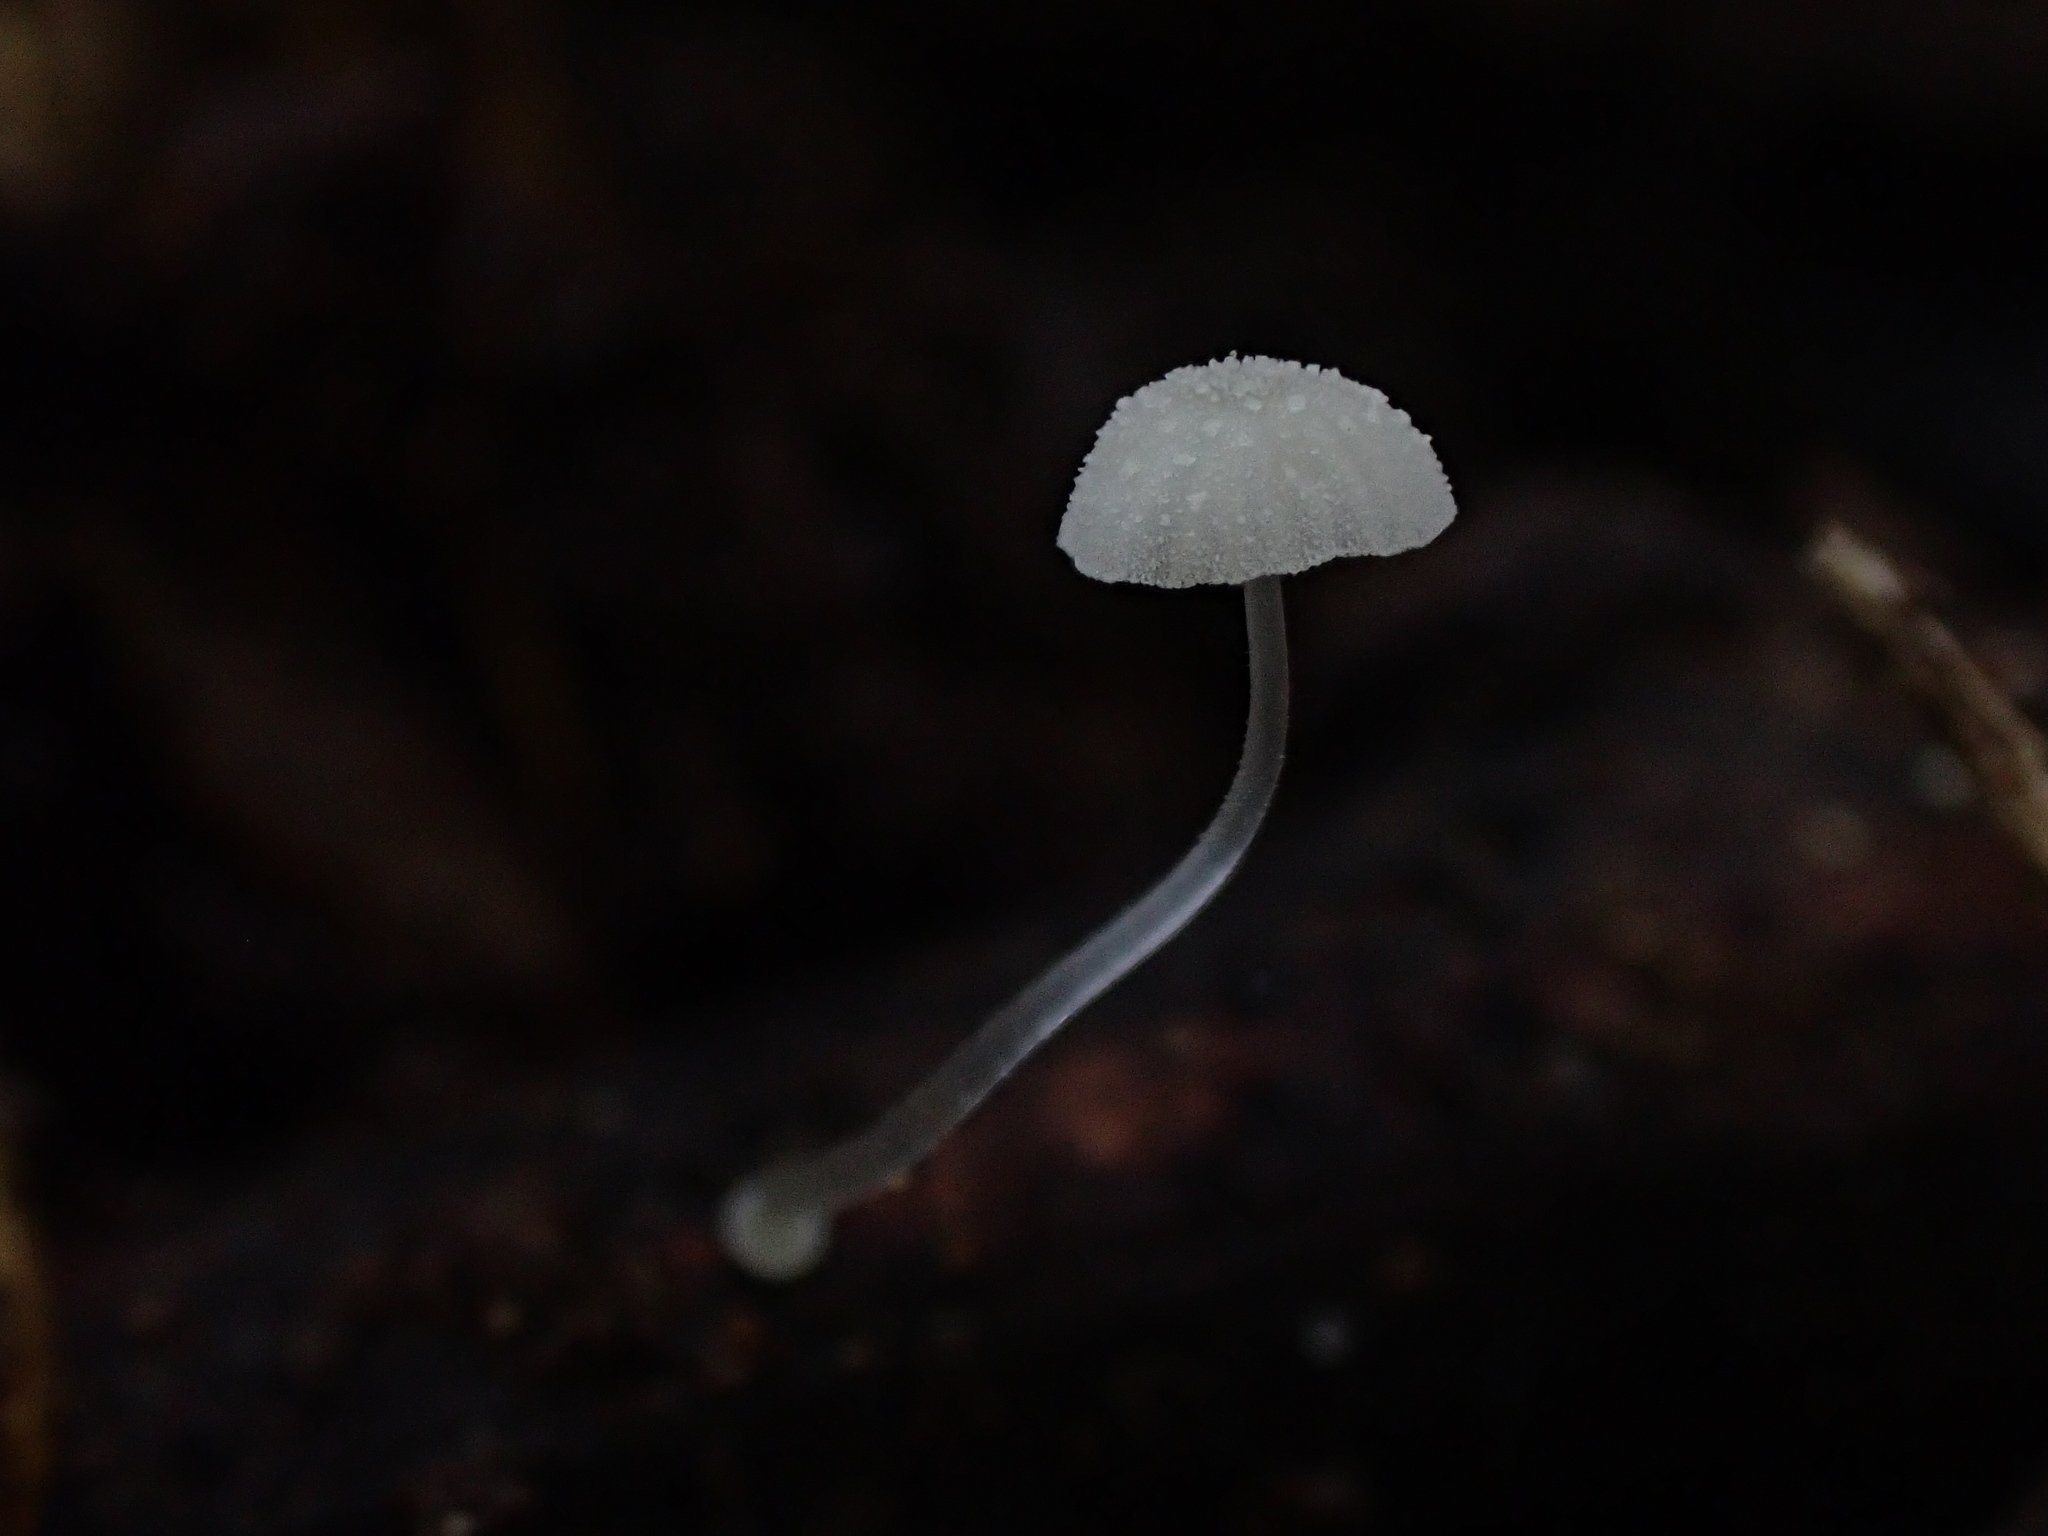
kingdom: Fungi
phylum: Basidiomycota
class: Agaricomycetes
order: Agaricales
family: Mycenaceae
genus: Mycena
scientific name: Mycena
